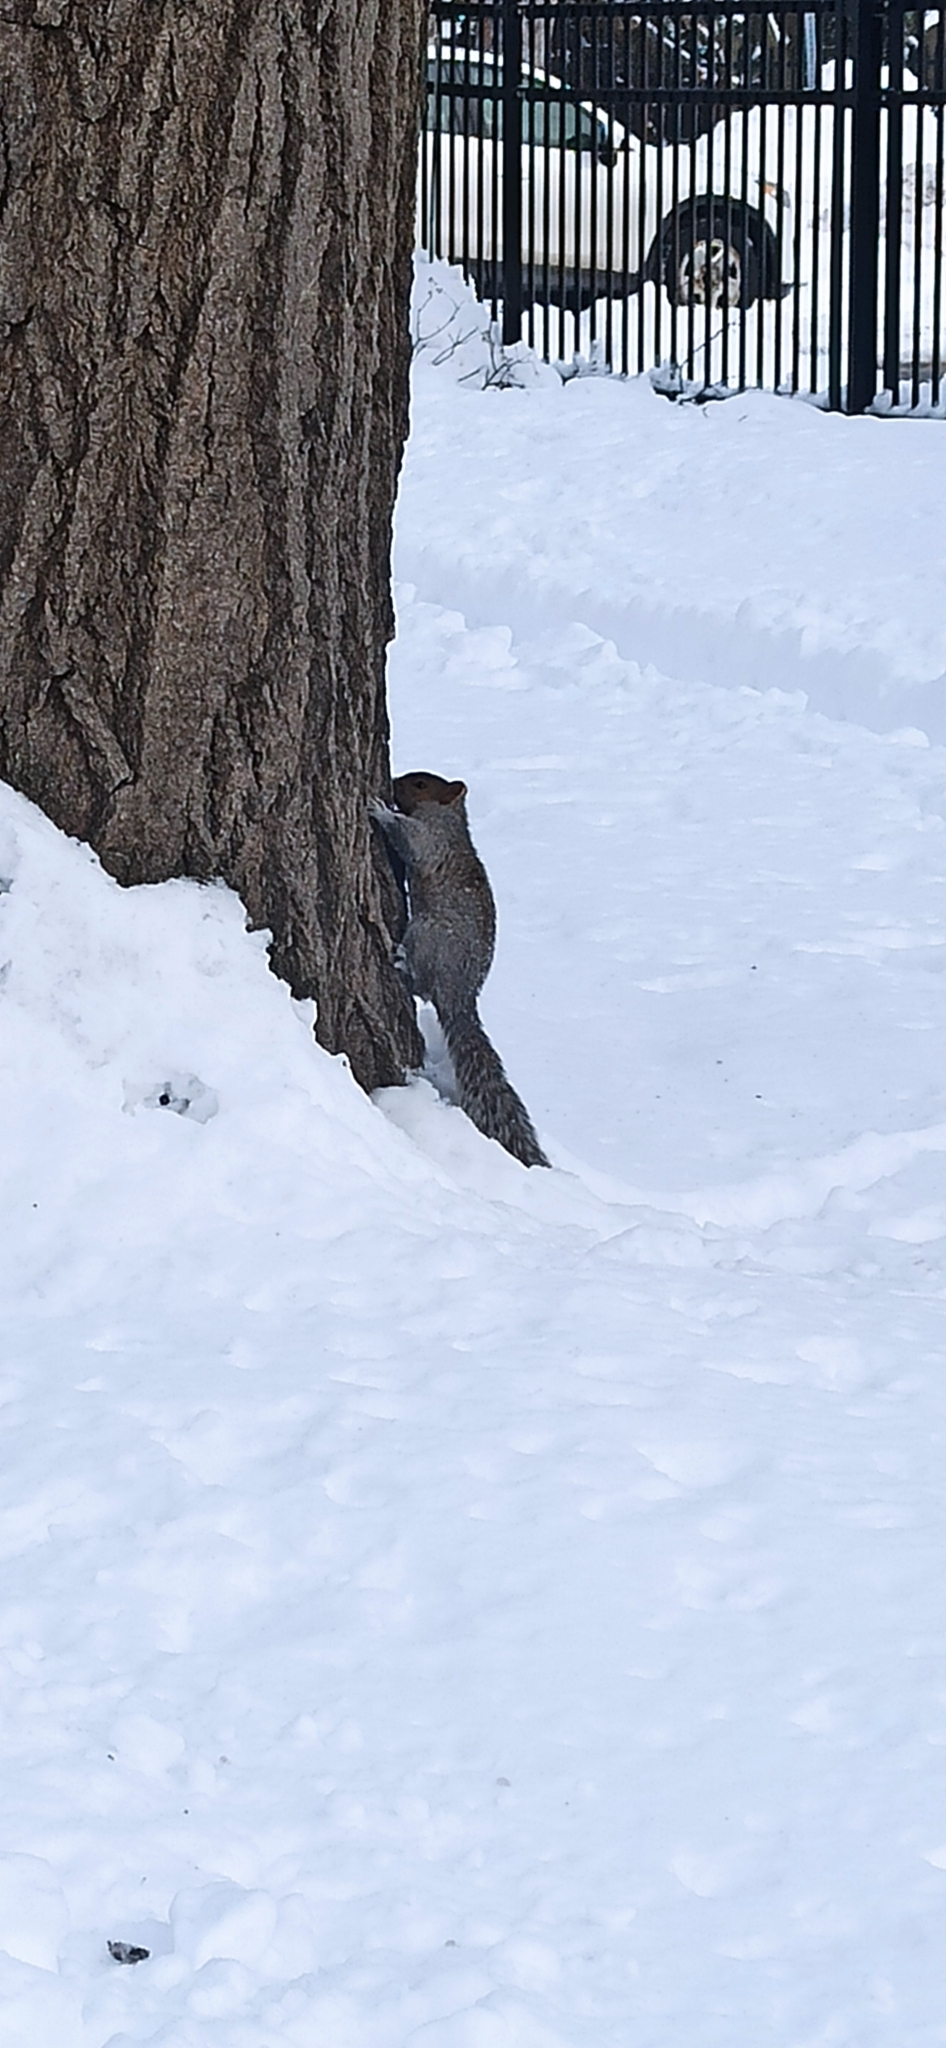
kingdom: Animalia
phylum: Chordata
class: Mammalia
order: Rodentia
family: Sciuridae
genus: Sciurus
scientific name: Sciurus carolinensis
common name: Eastern gray squirrel
